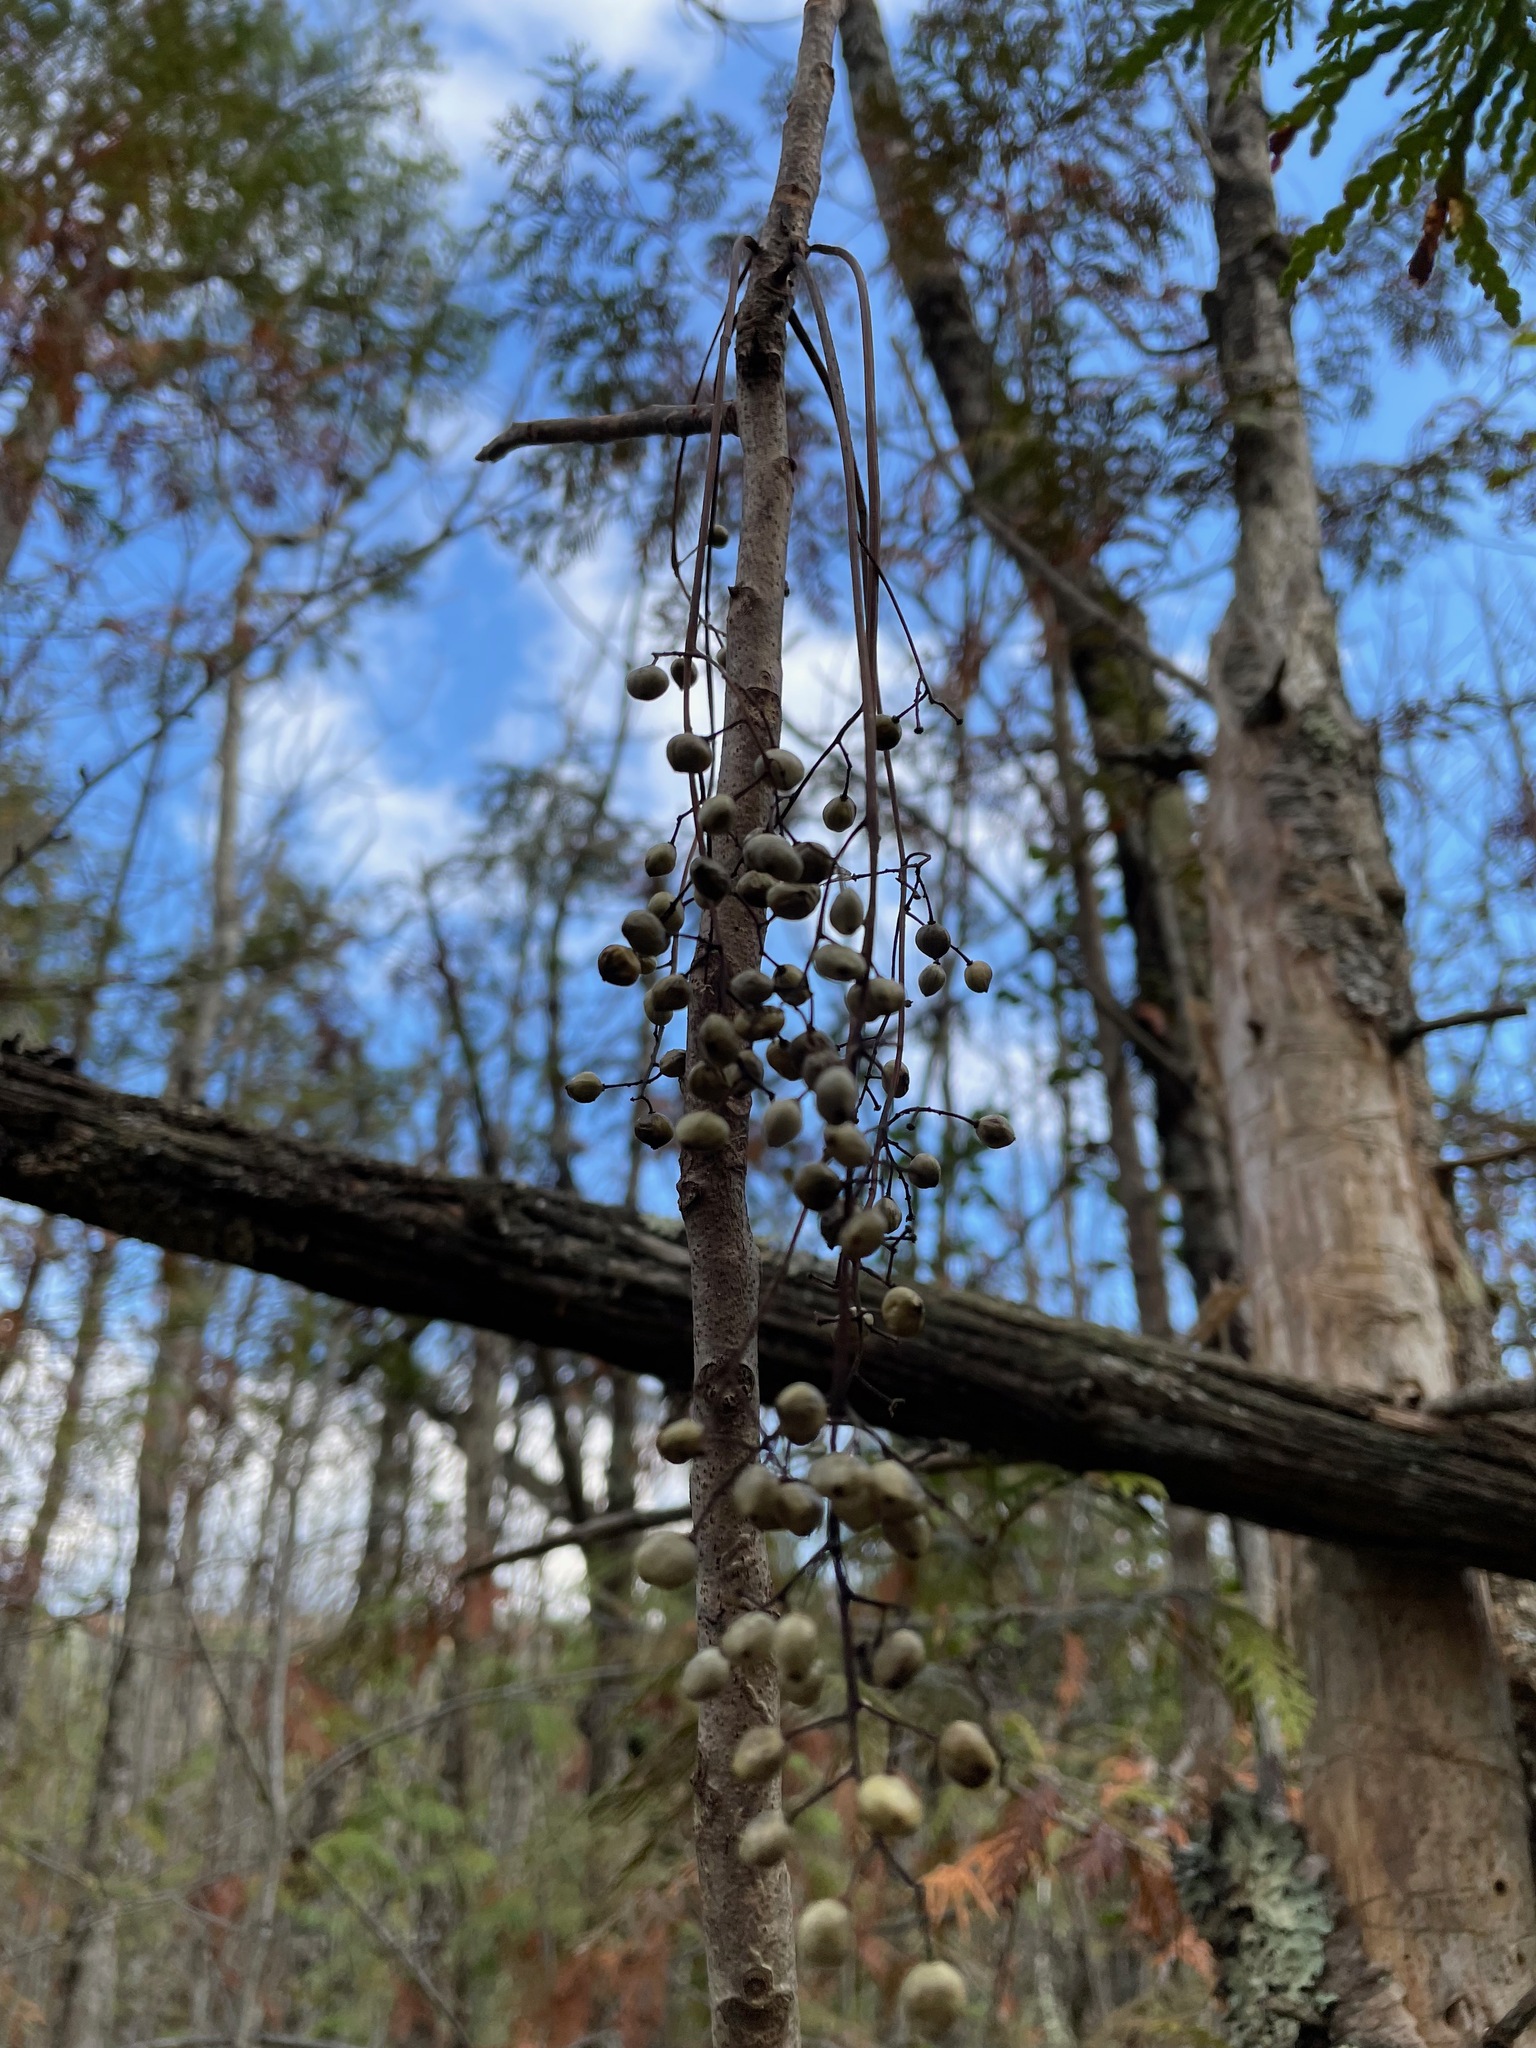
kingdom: Plantae
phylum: Tracheophyta
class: Magnoliopsida
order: Sapindales
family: Anacardiaceae
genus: Toxicodendron
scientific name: Toxicodendron vernix
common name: Poison sumac
